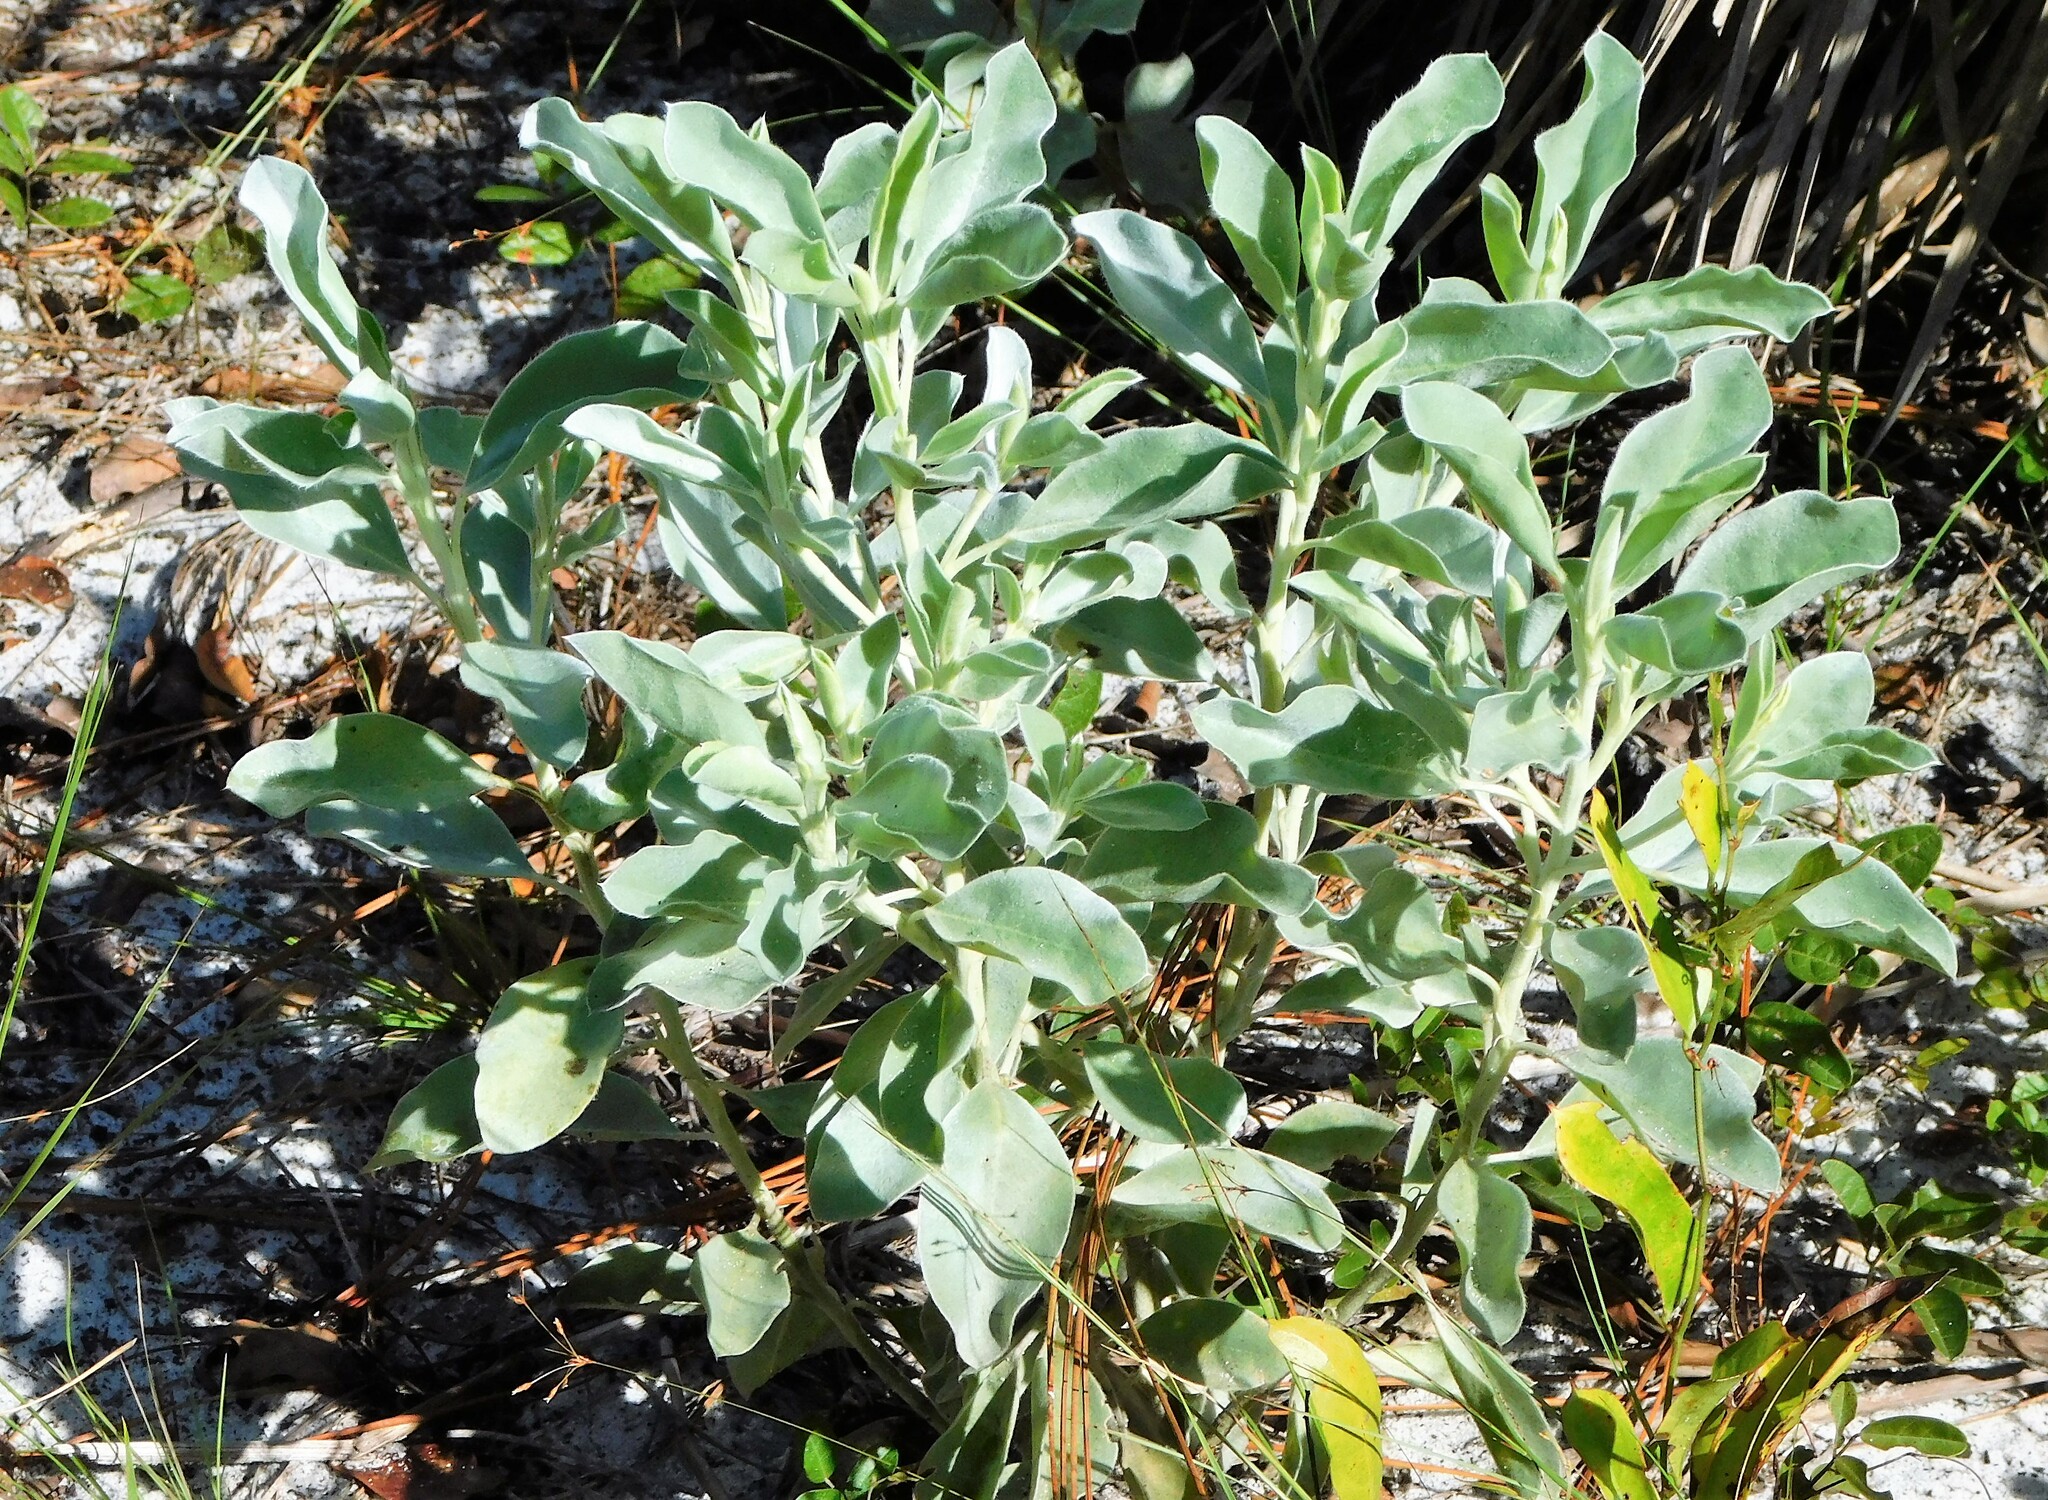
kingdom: Plantae
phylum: Tracheophyta
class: Magnoliopsida
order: Fabales
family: Fabaceae
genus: Lupinus
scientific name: Lupinus cumulicola
